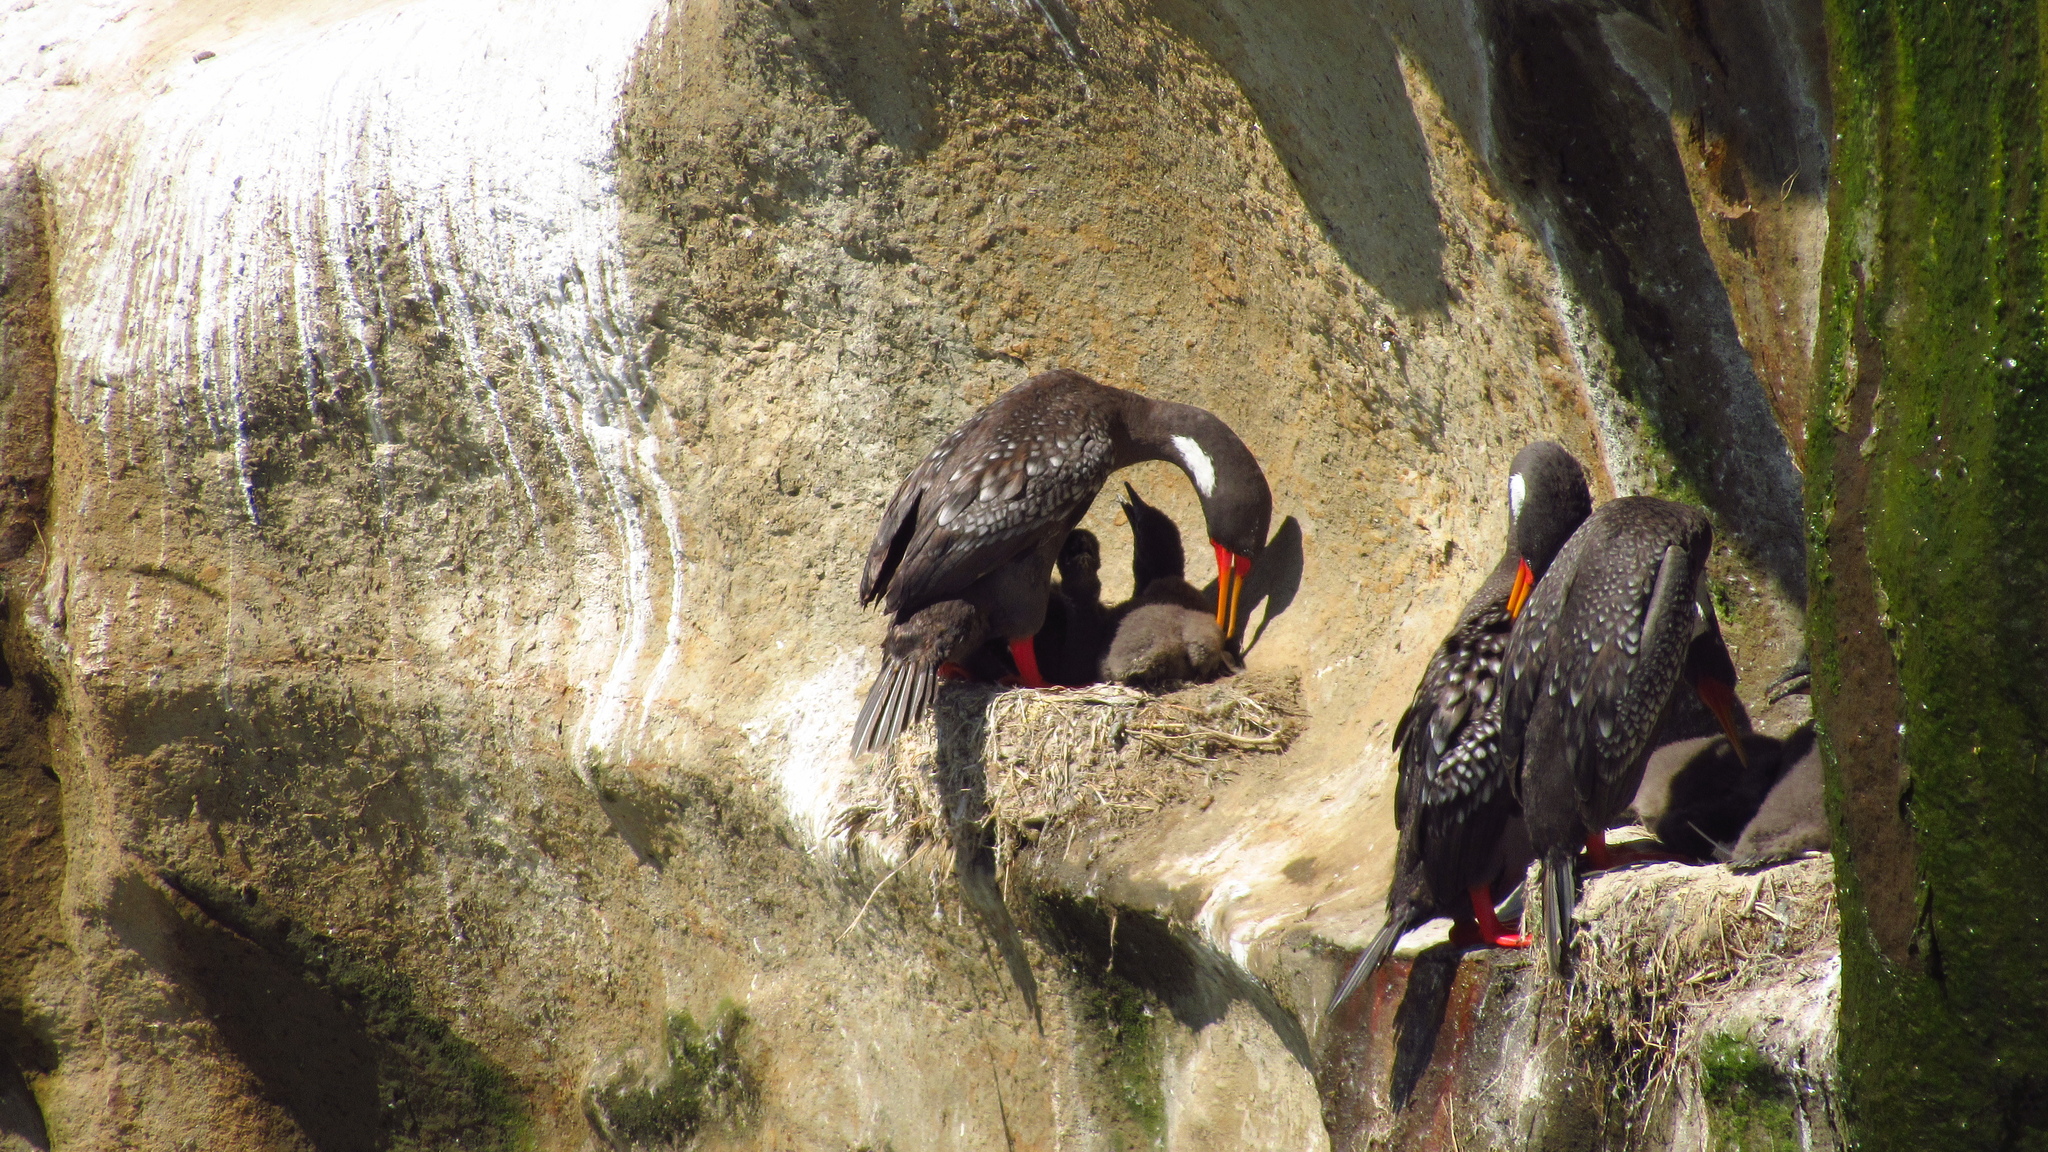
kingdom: Animalia
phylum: Chordata
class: Aves
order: Suliformes
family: Phalacrocoracidae
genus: Phalacrocorax
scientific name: Phalacrocorax gaimardi
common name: Red-legged cormorant
